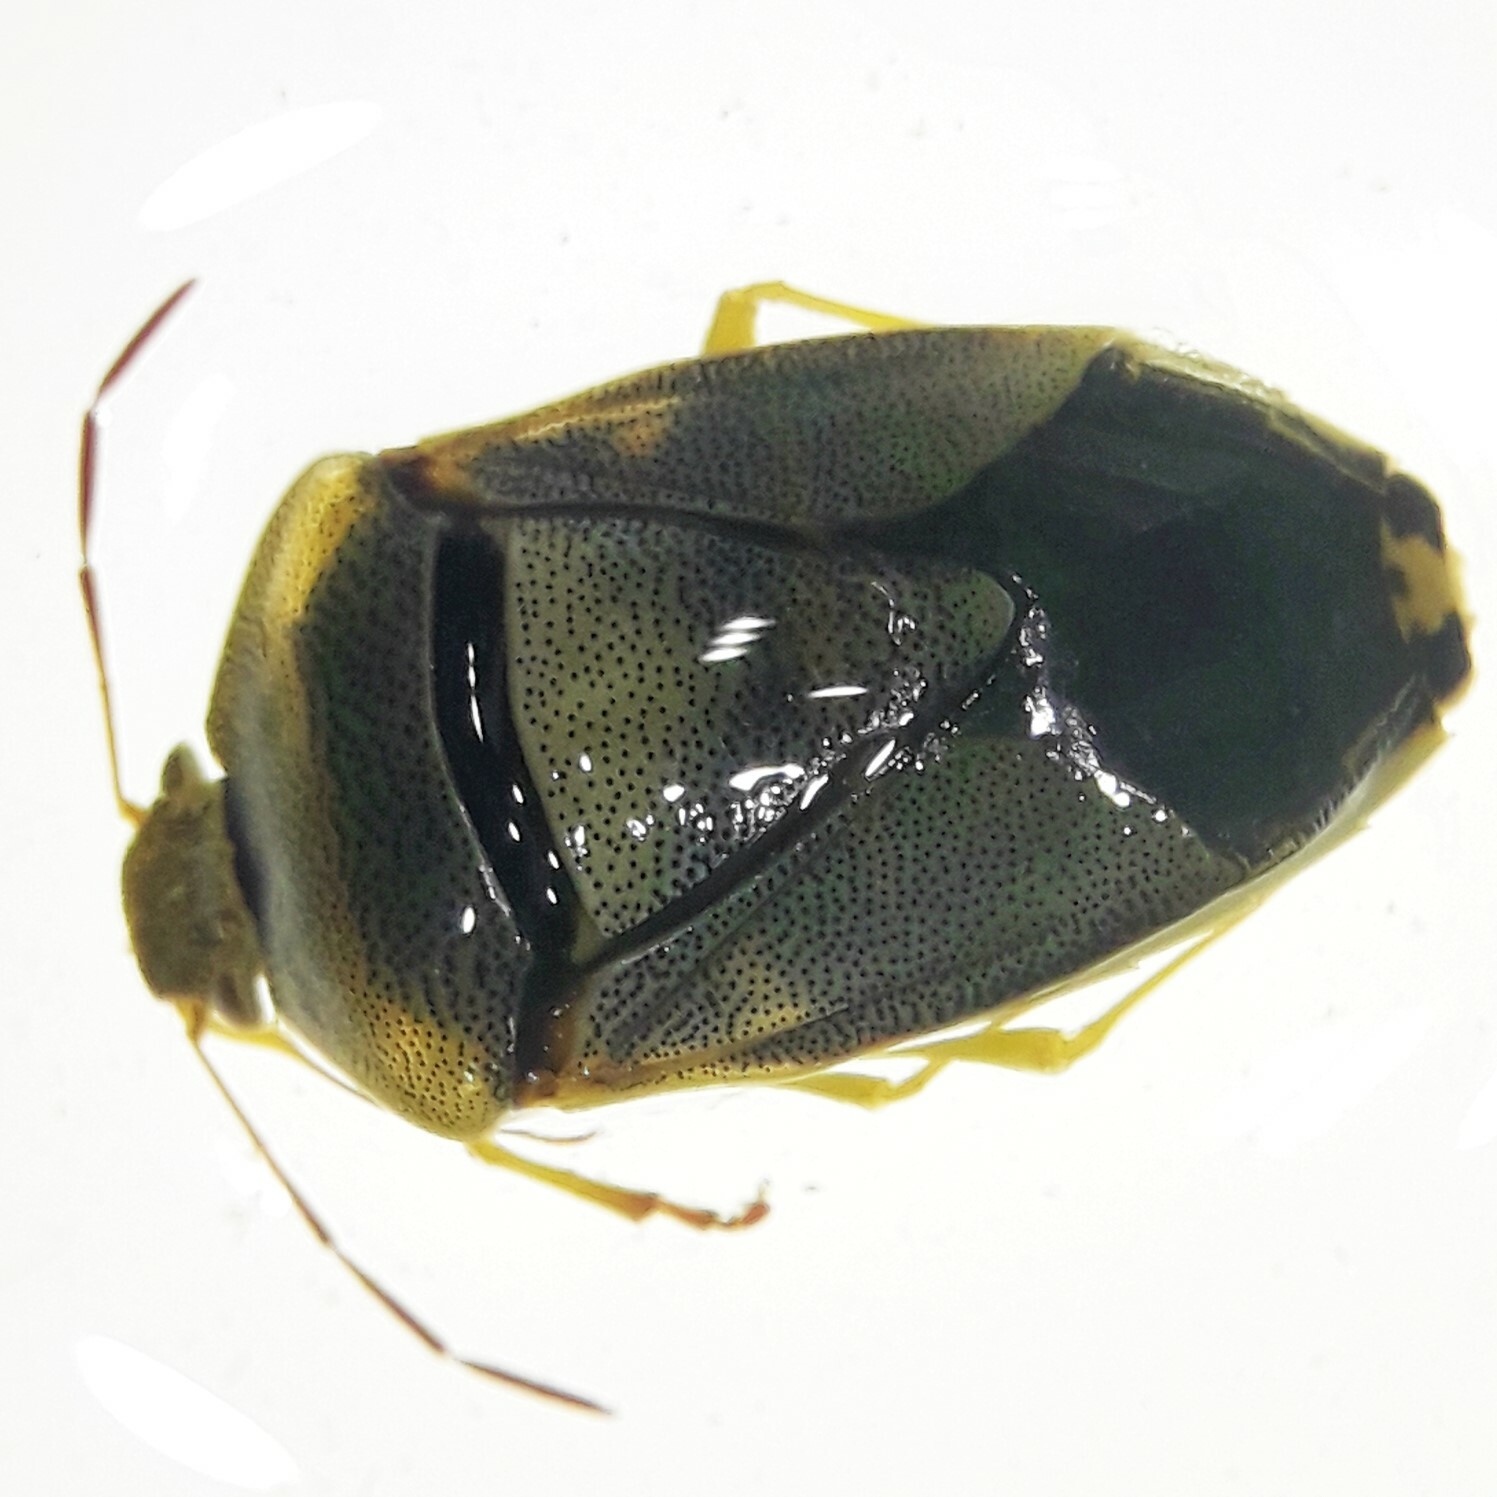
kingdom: Animalia
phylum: Arthropoda
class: Insecta
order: Hemiptera
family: Pentatomidae
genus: Piezodorus
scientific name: Piezodorus lituratus
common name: Stink bug
